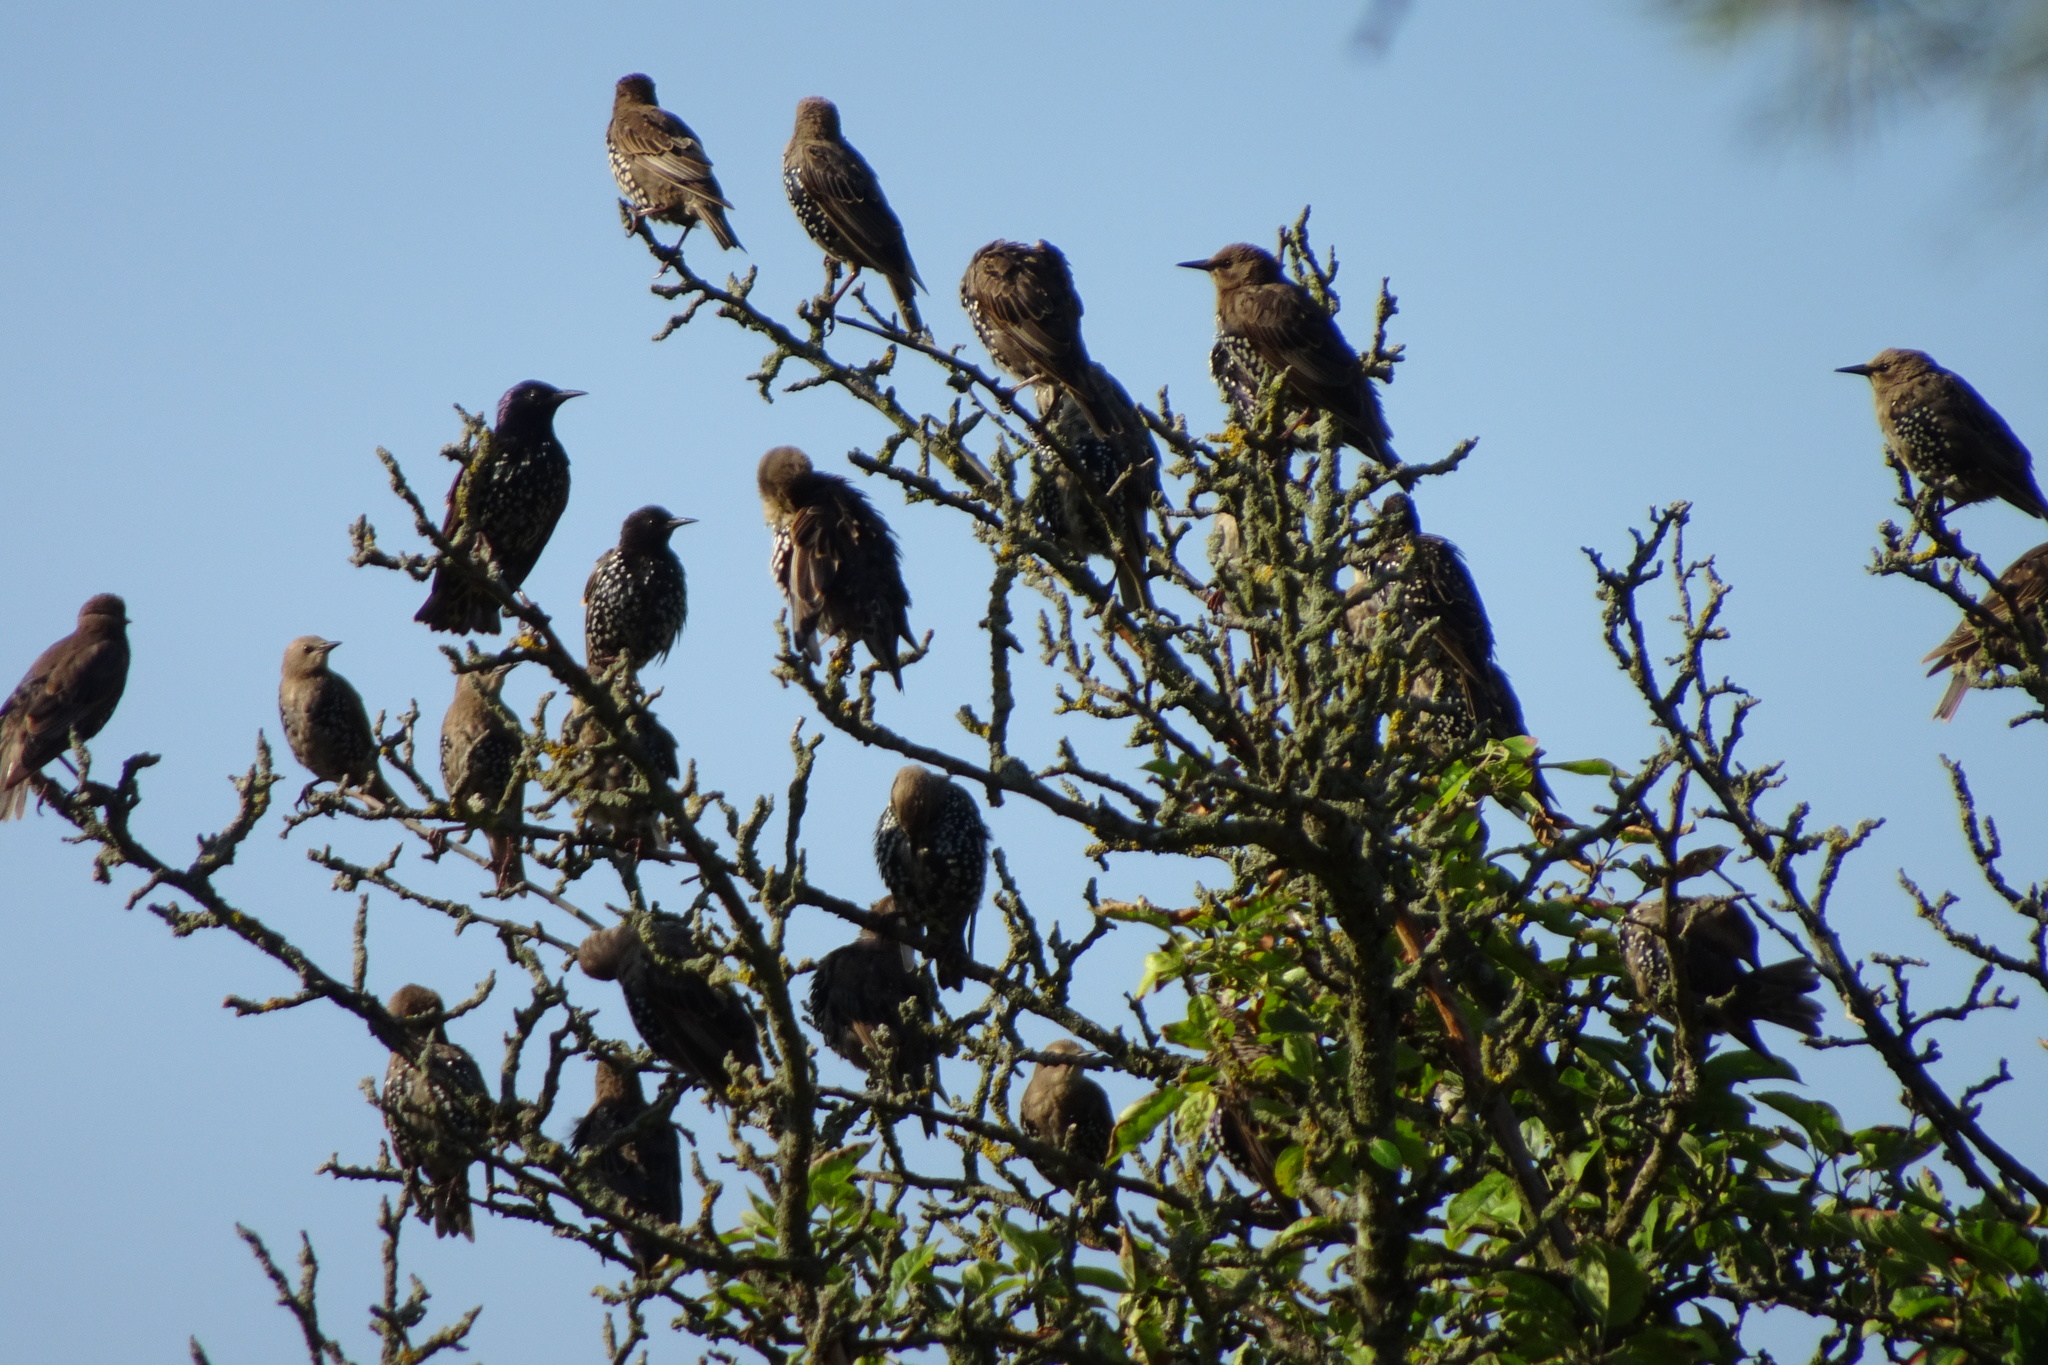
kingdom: Animalia
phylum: Chordata
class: Aves
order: Passeriformes
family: Sturnidae
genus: Sturnus
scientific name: Sturnus vulgaris
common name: Common starling
